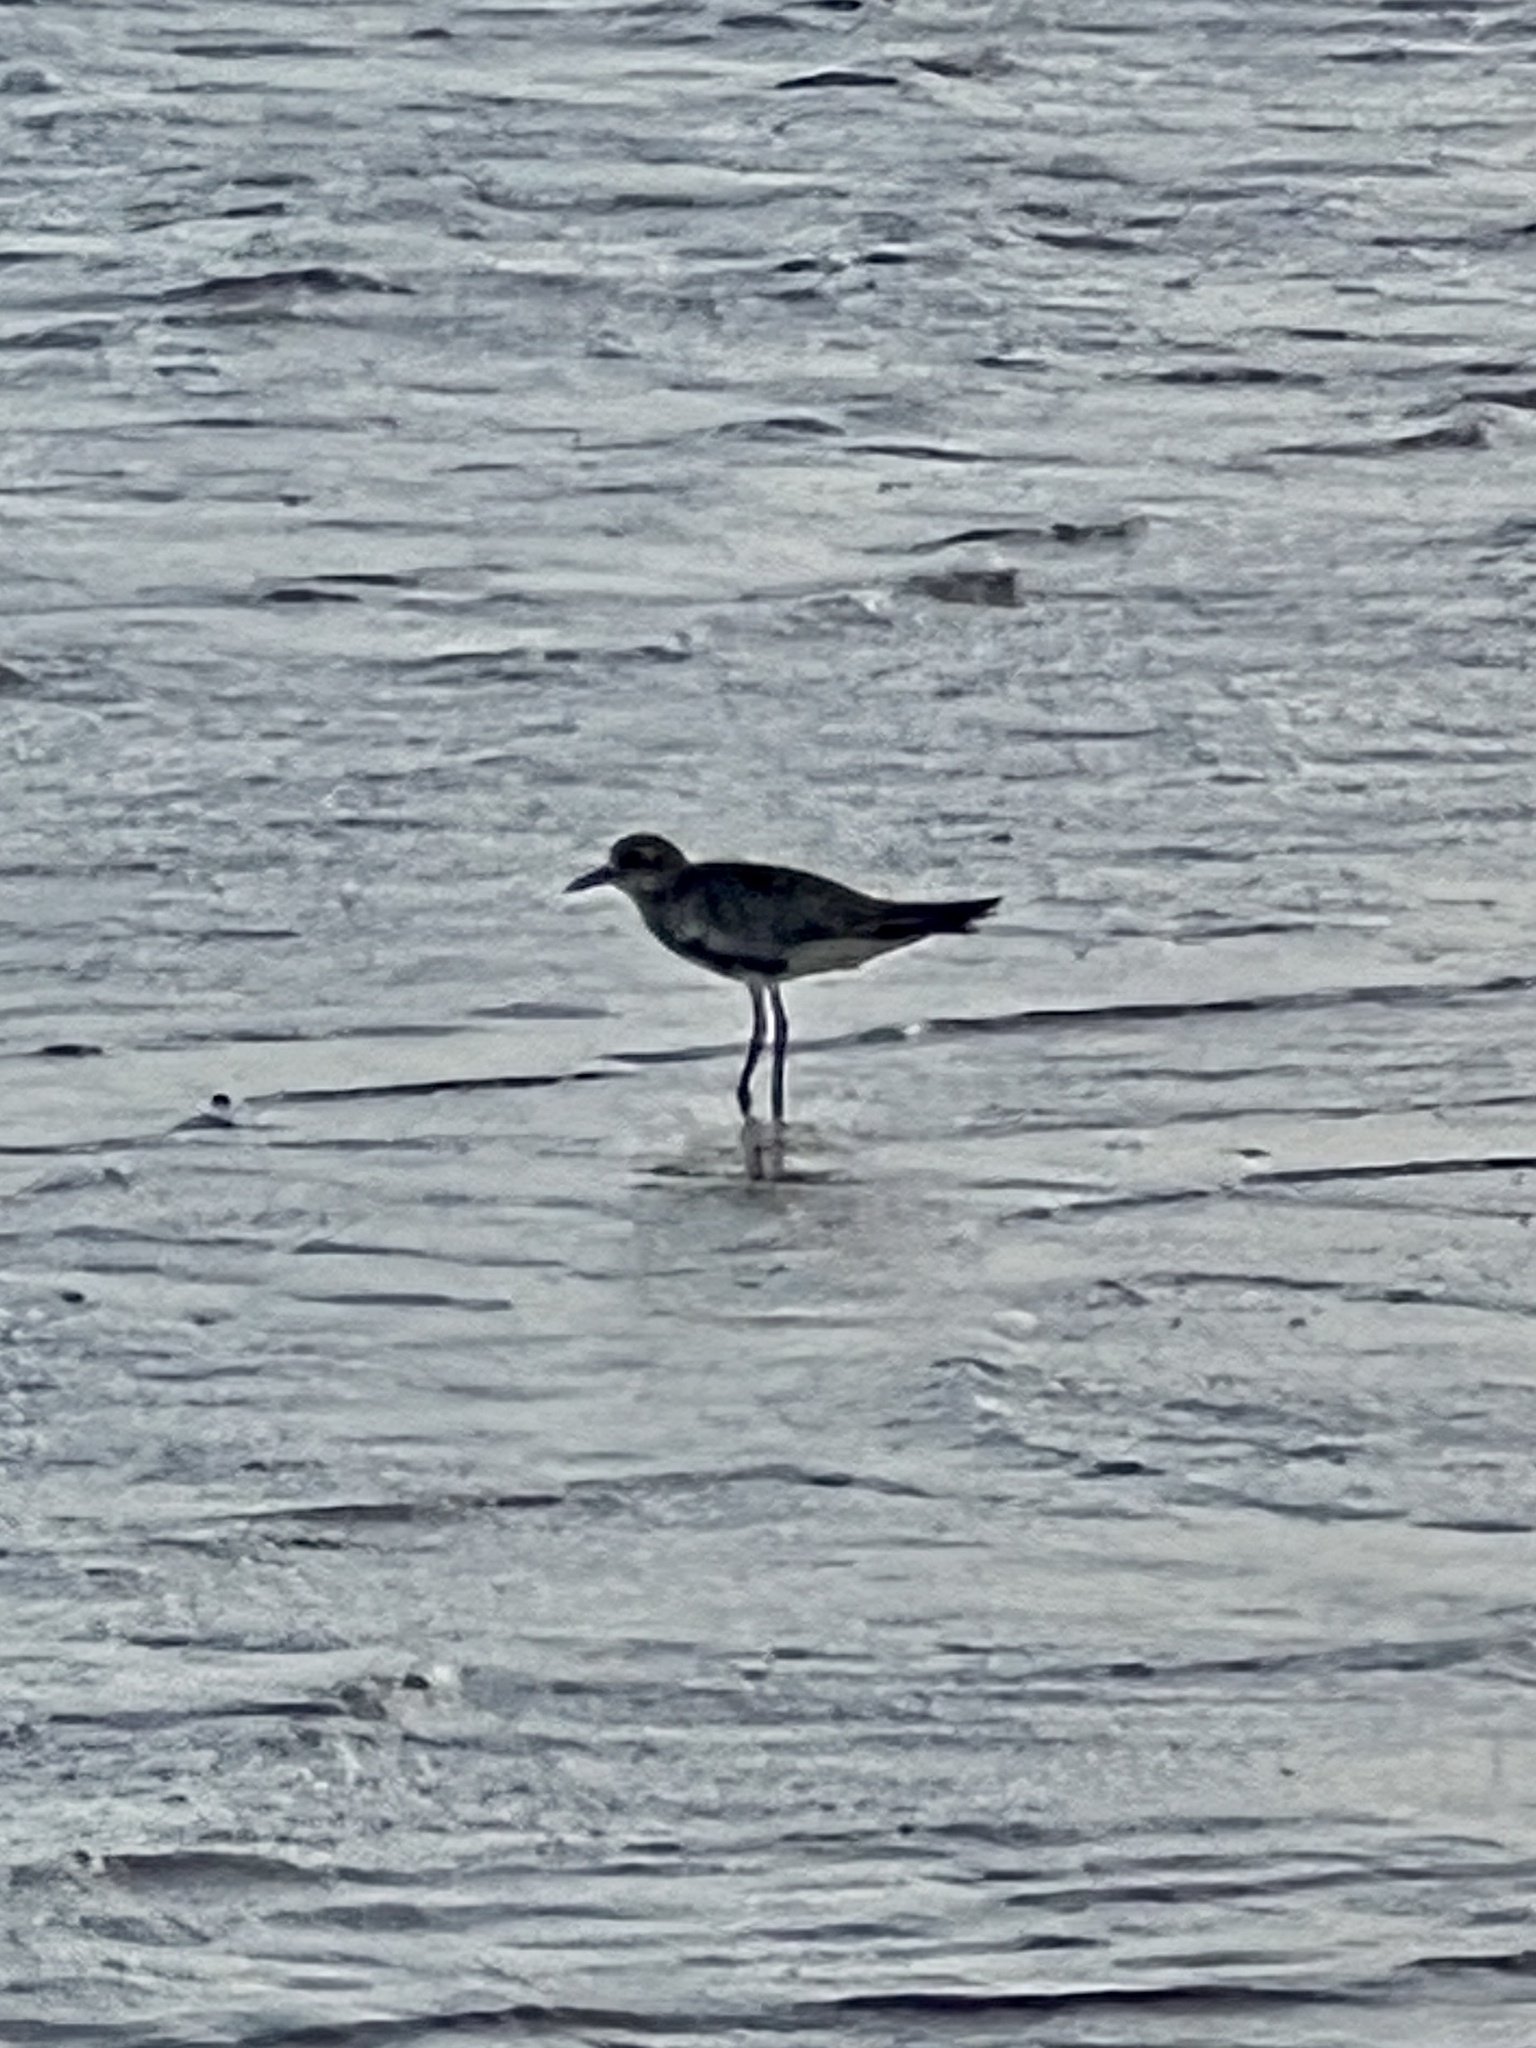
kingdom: Animalia
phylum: Chordata
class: Aves
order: Charadriiformes
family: Charadriidae
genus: Pluvialis
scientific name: Pluvialis squatarola
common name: Grey plover
